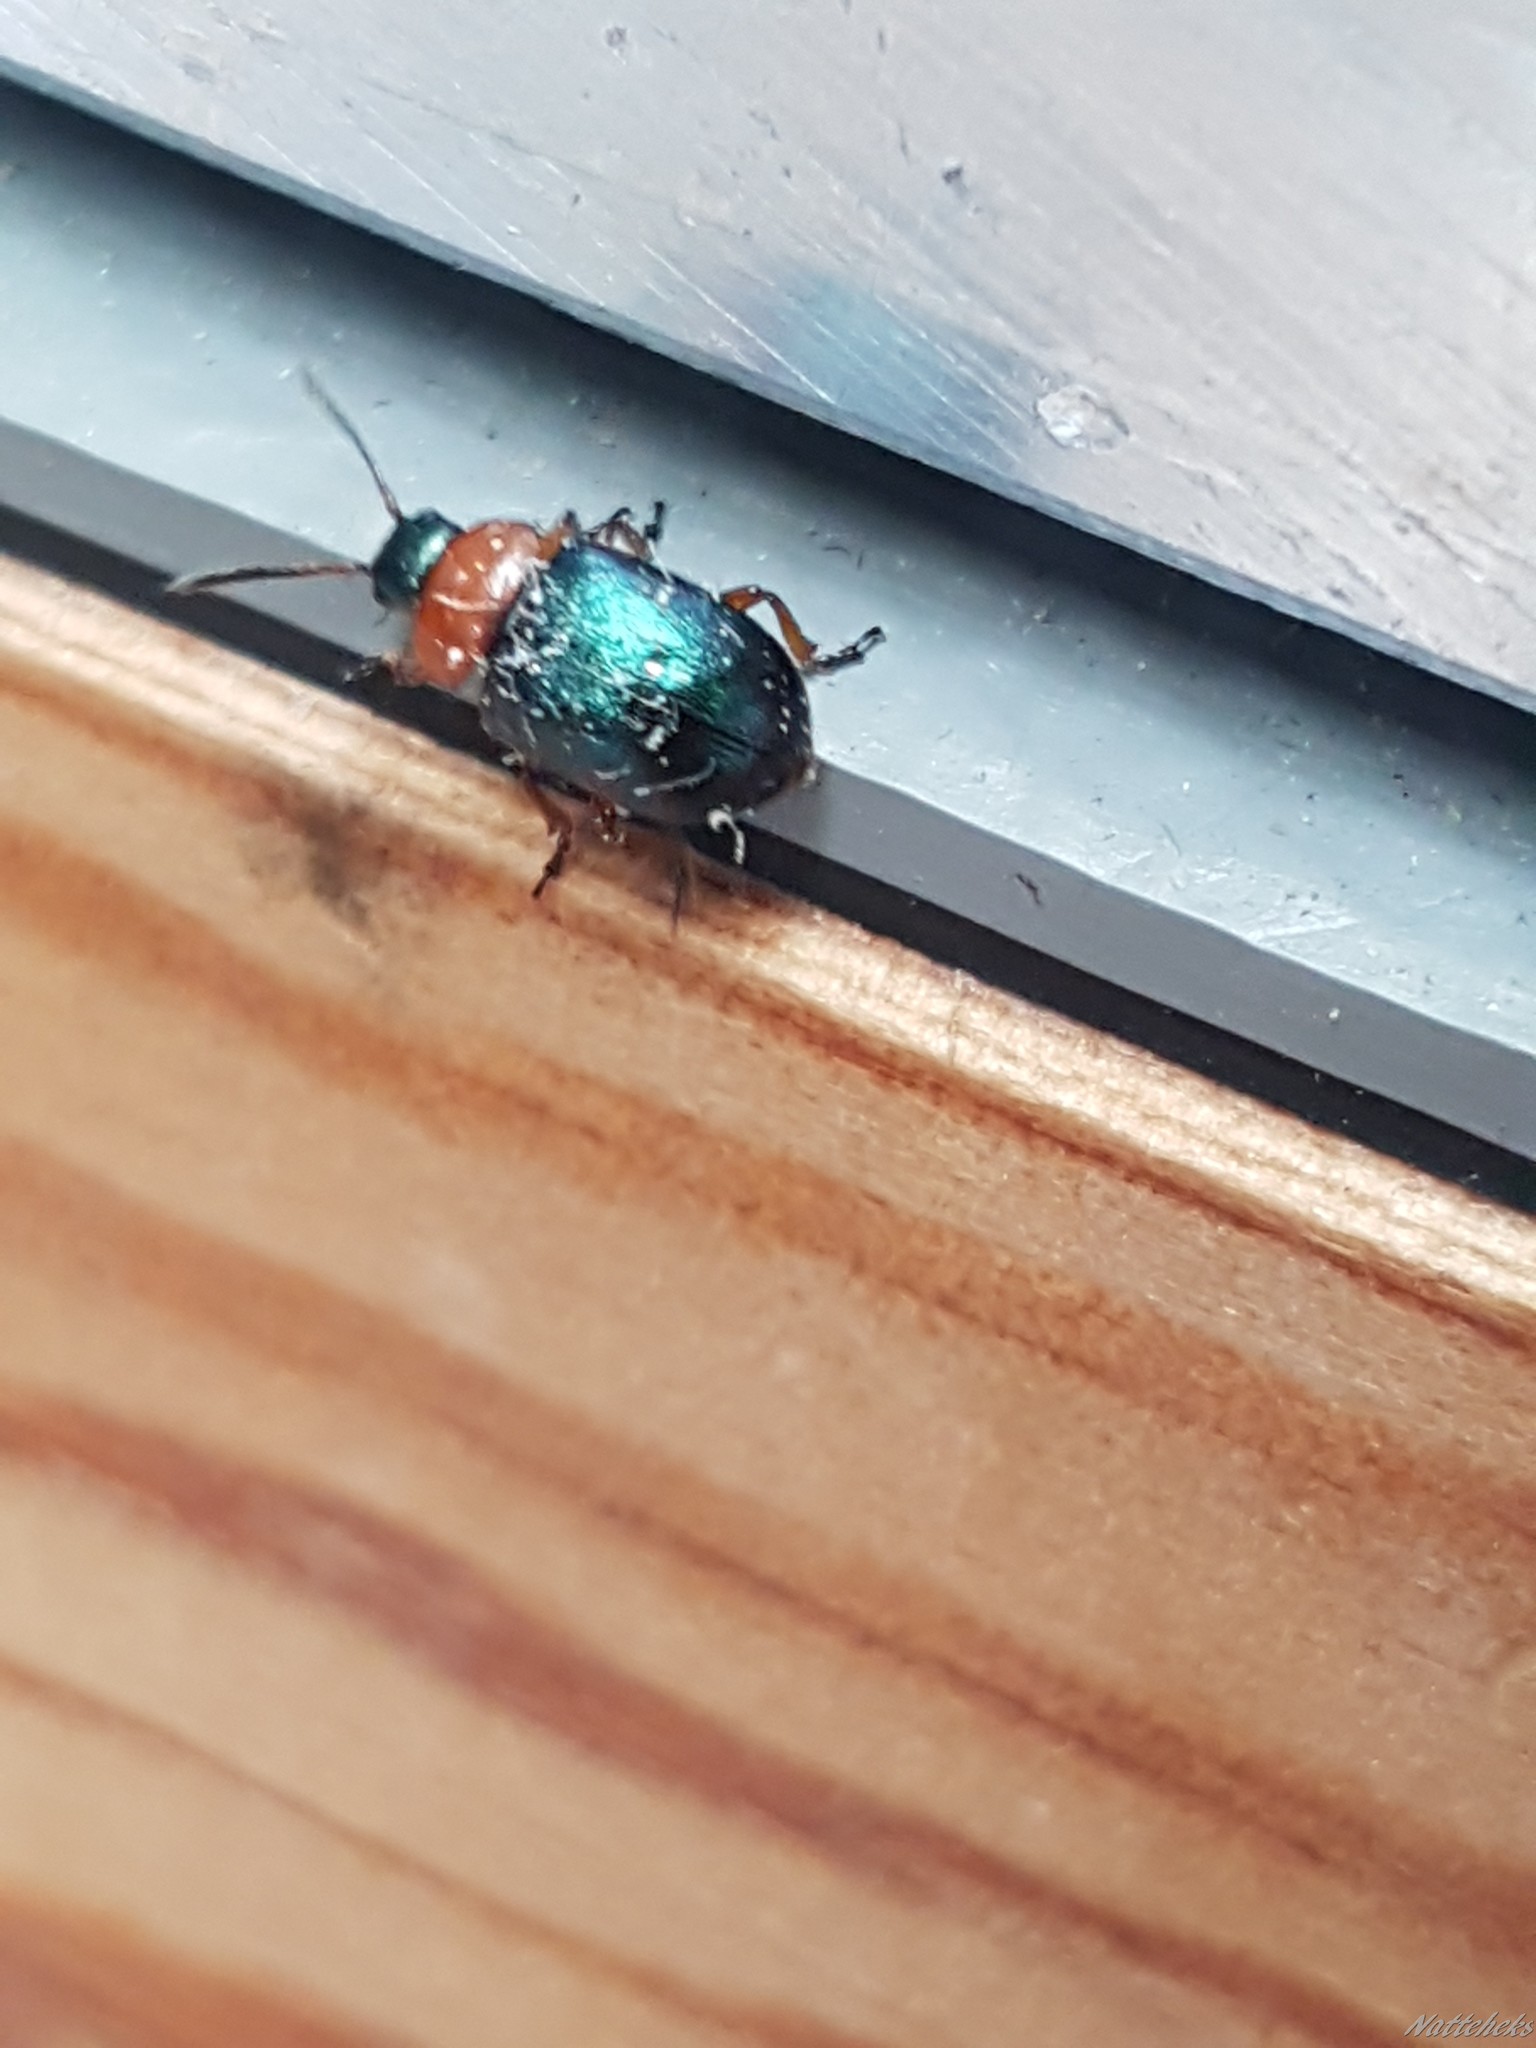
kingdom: Animalia
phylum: Arthropoda
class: Insecta
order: Coleoptera
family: Chrysomelidae
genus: Gastrophysa
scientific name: Gastrophysa polygoni
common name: Knotweed leaf beetle
